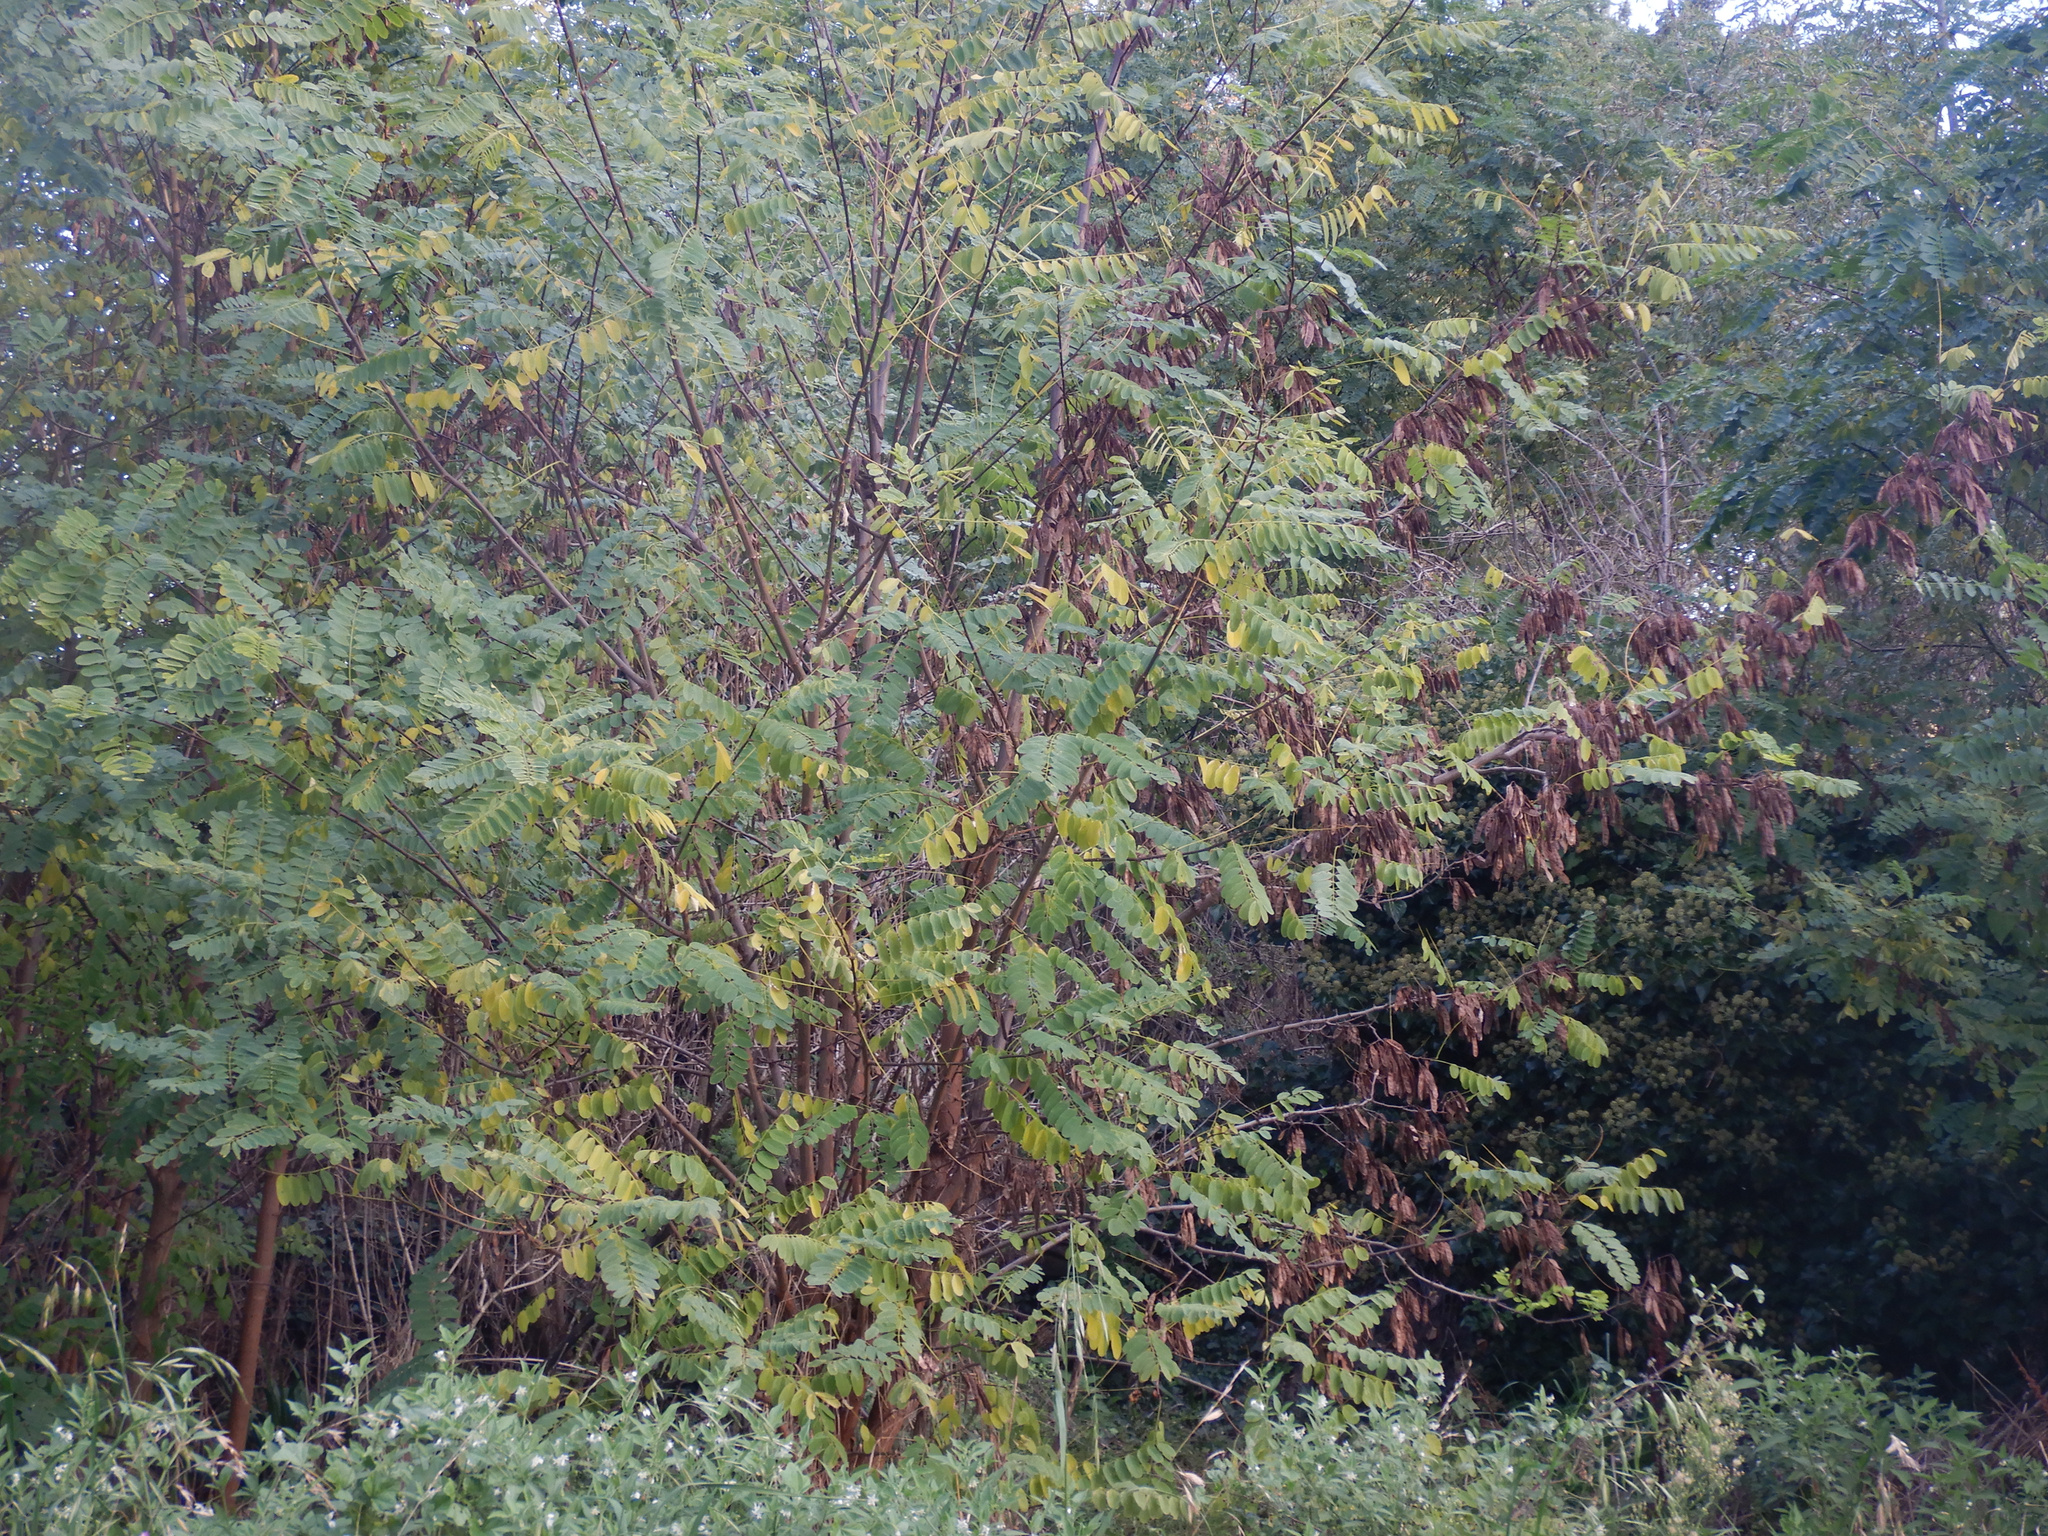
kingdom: Plantae
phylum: Tracheophyta
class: Magnoliopsida
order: Fabales
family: Fabaceae
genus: Robinia
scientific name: Robinia pseudoacacia
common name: Black locust
